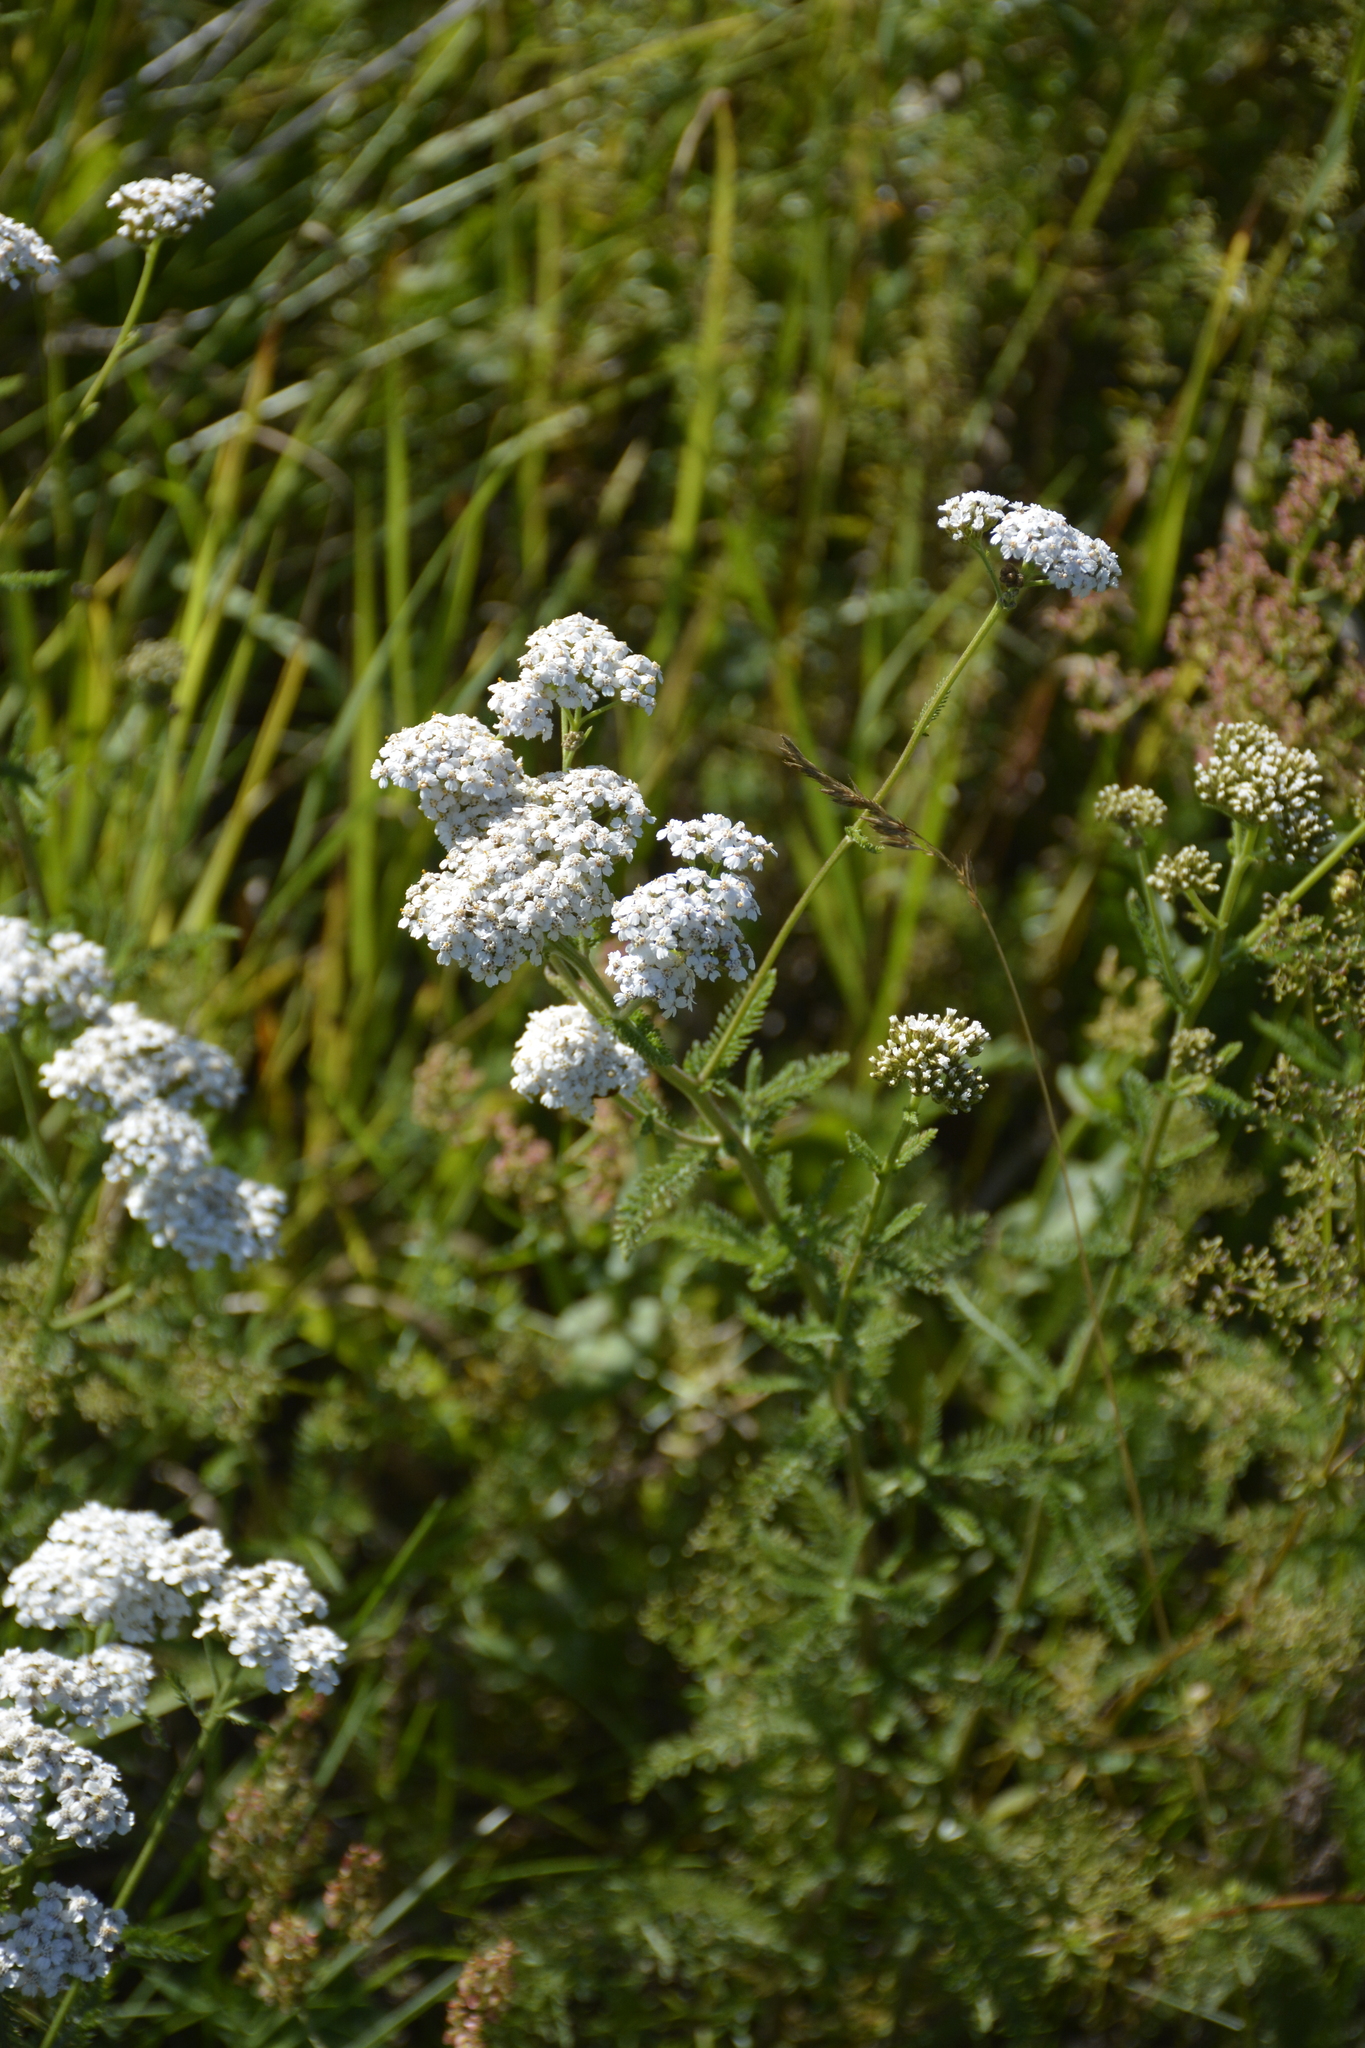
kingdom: Plantae
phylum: Tracheophyta
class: Magnoliopsida
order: Asterales
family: Asteraceae
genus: Achillea
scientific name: Achillea millefolium
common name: Yarrow
